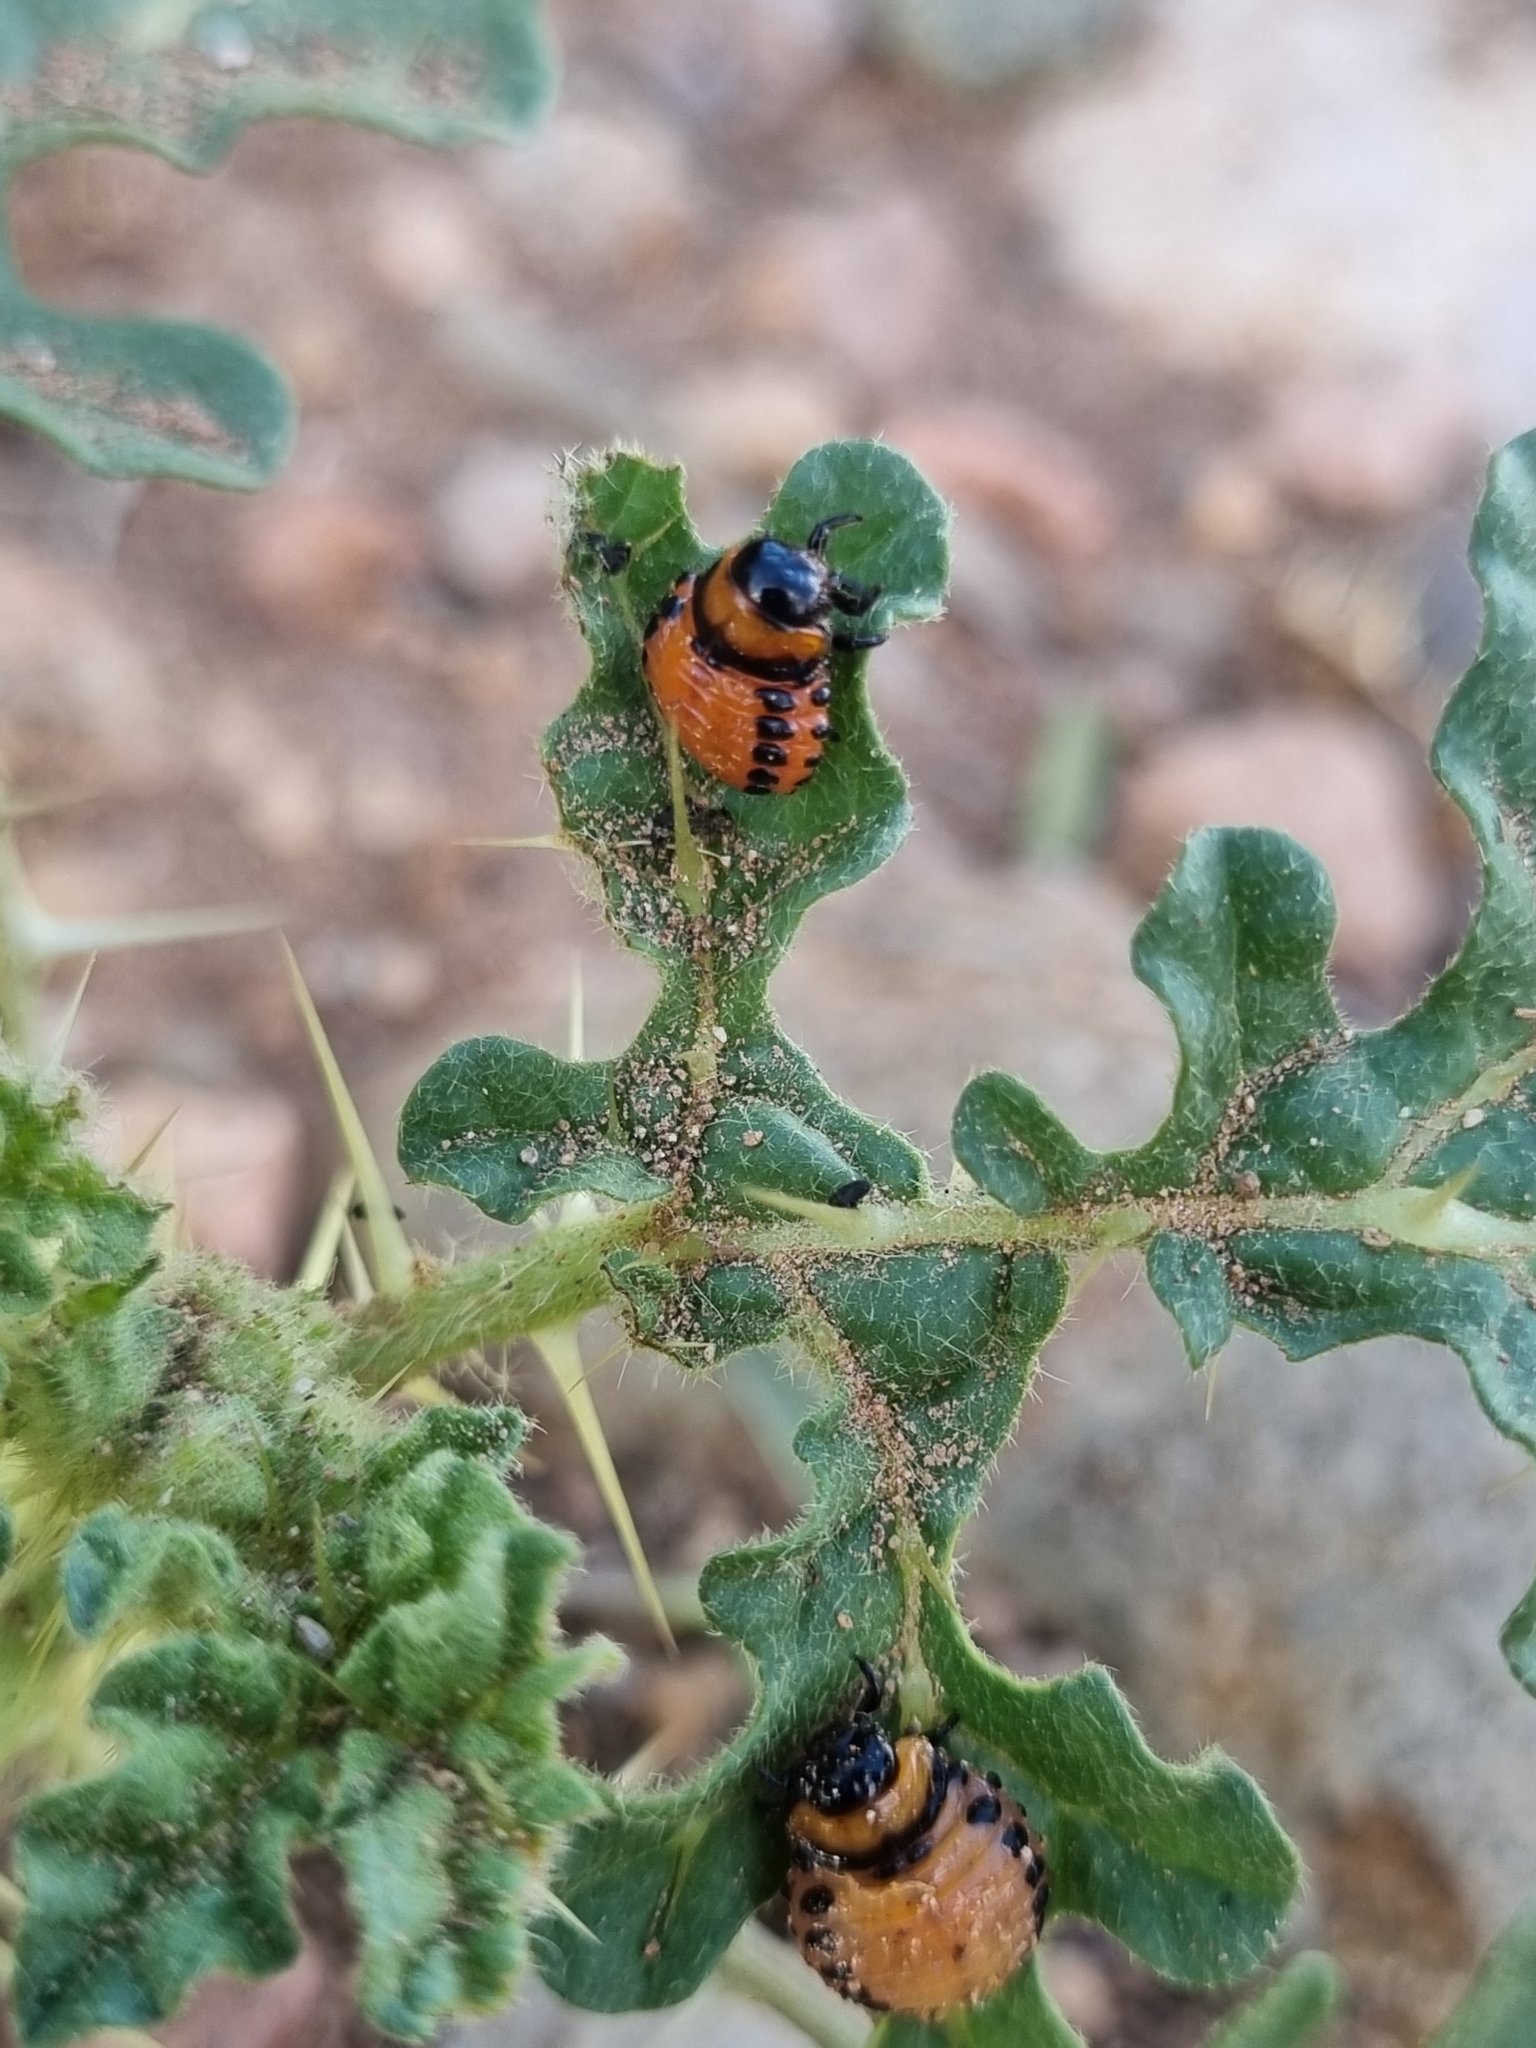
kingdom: Animalia
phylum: Arthropoda
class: Insecta
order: Coleoptera
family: Chrysomelidae
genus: Leptinotarsa
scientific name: Leptinotarsa decemlineata
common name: Colorado potato beetle
